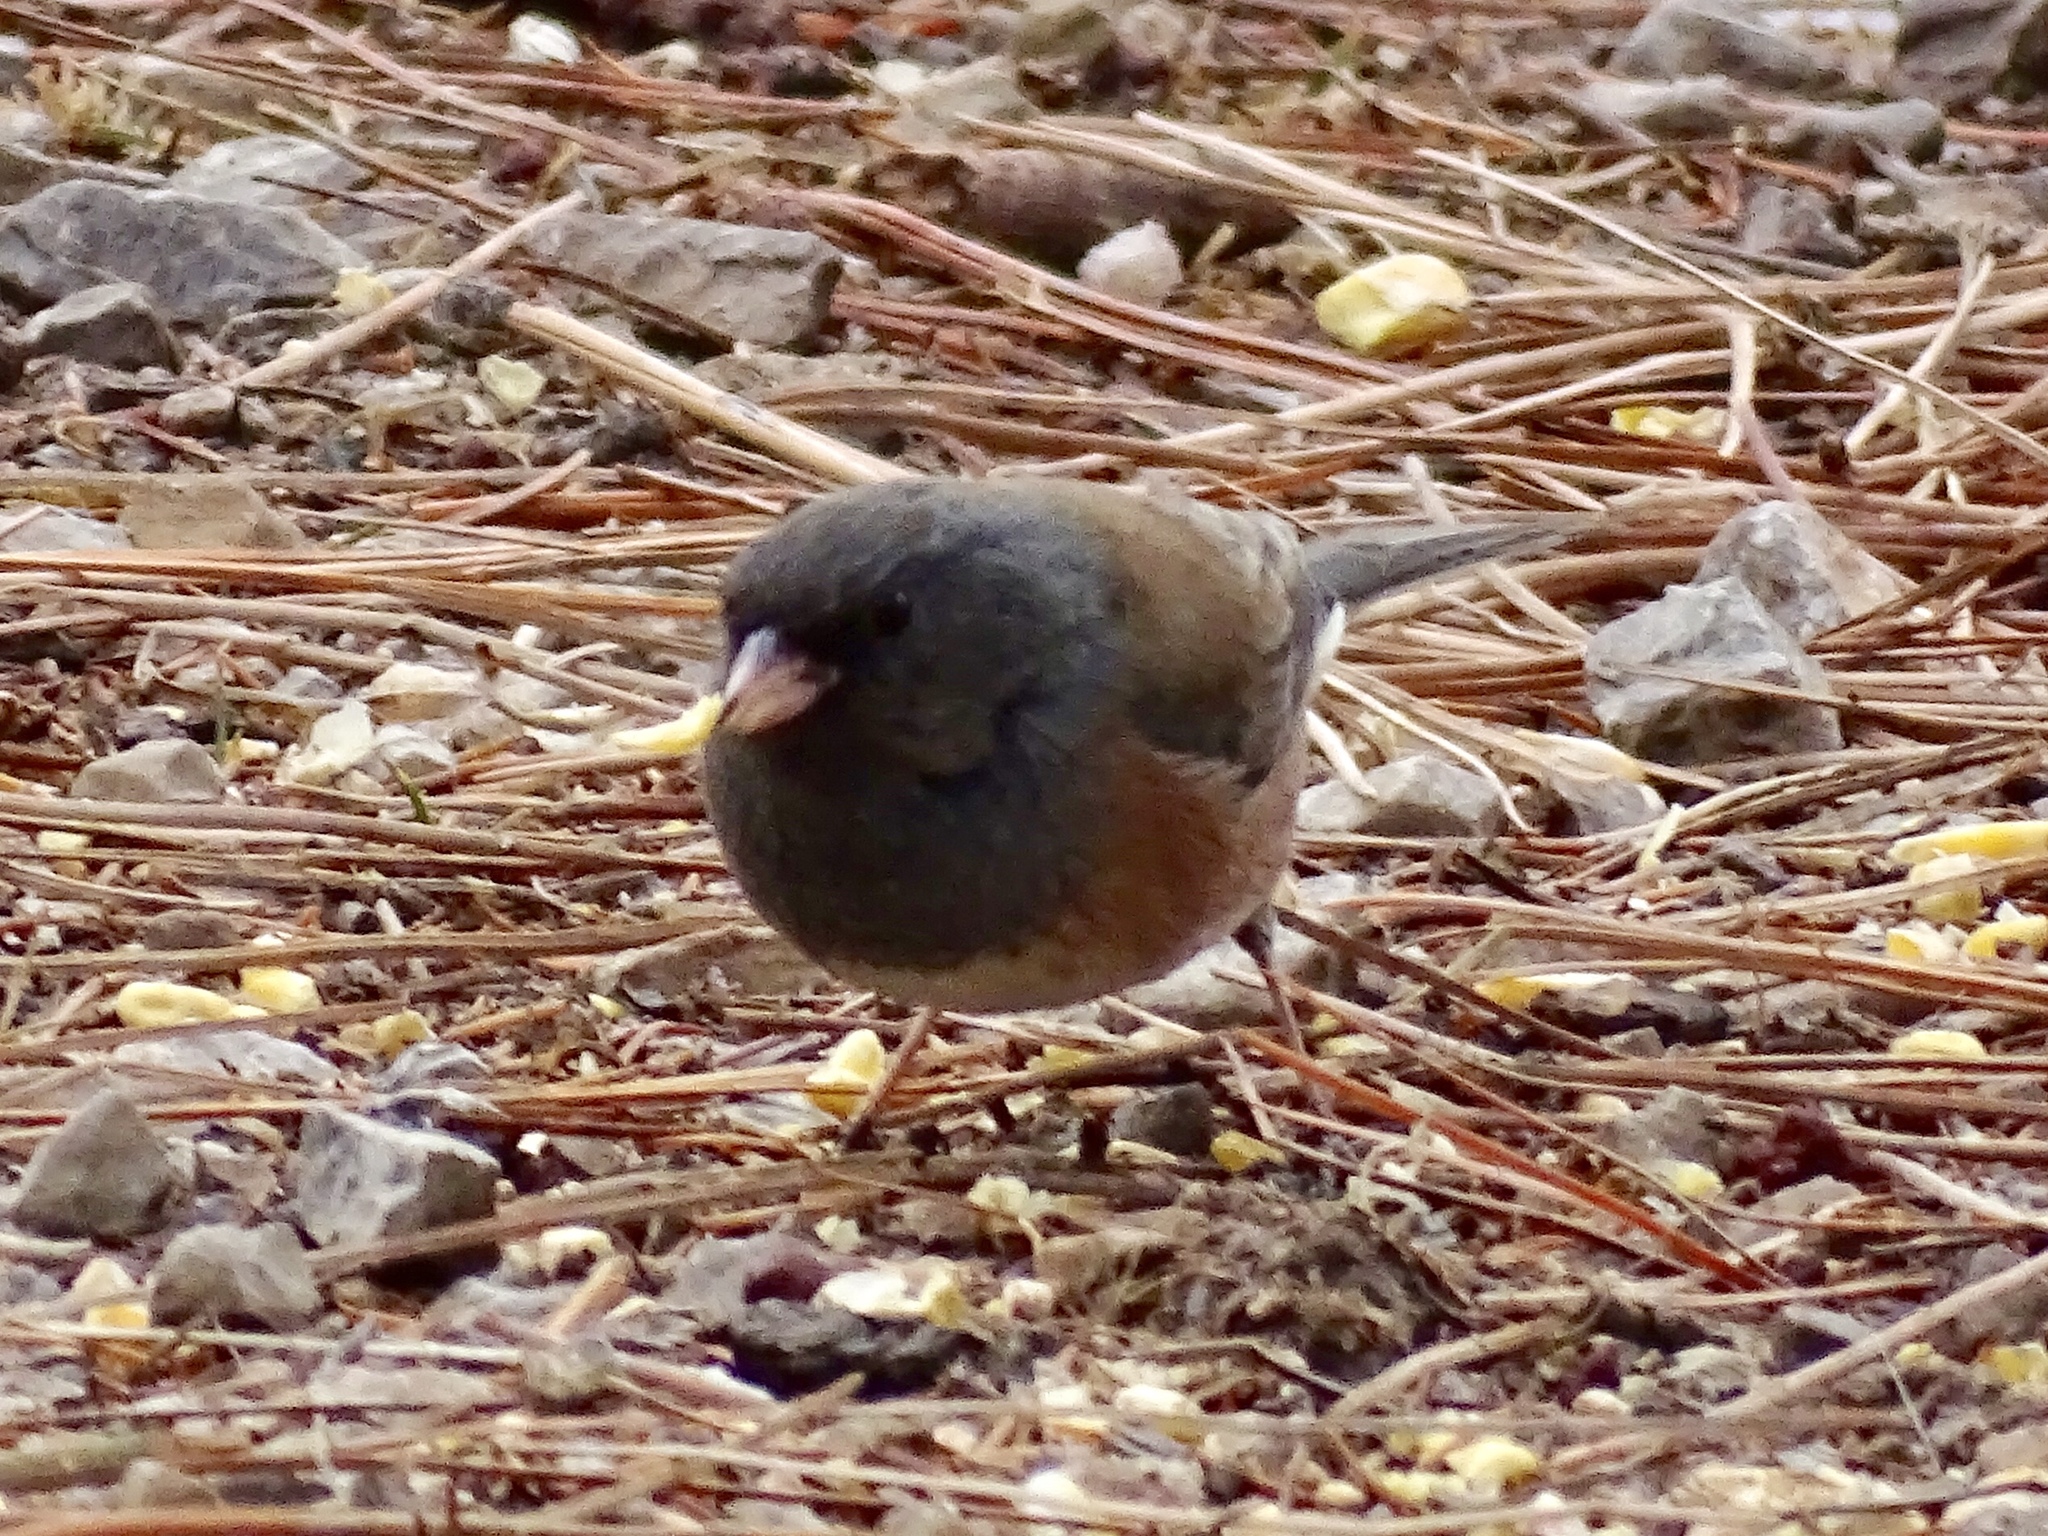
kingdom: Animalia
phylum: Chordata
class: Aves
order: Passeriformes
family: Passerellidae
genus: Junco
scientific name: Junco hyemalis
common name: Dark-eyed junco
